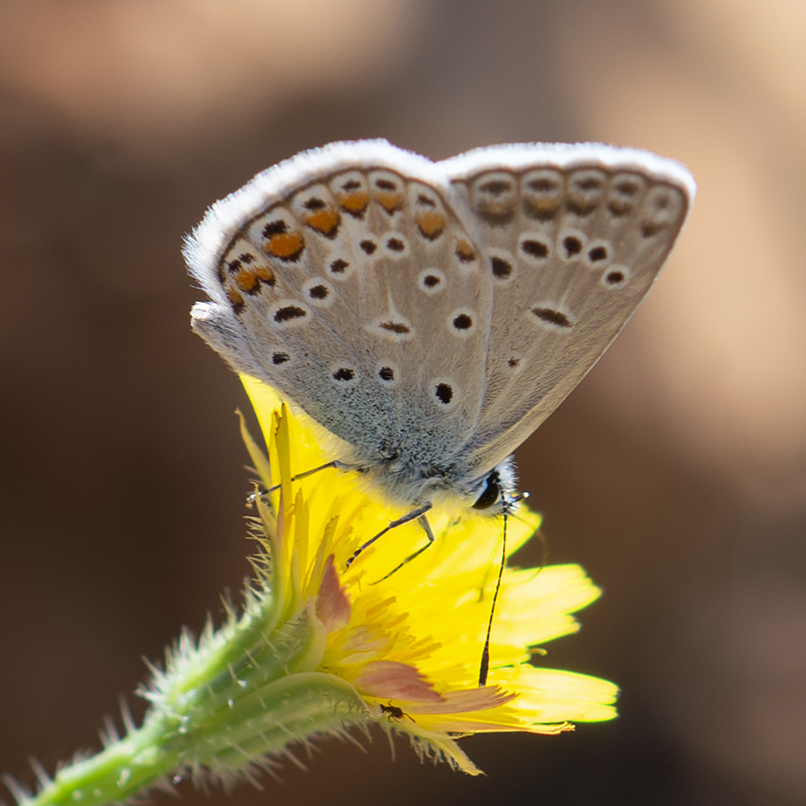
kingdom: Animalia
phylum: Arthropoda
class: Insecta
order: Lepidoptera
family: Lycaenidae
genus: Polyommatus
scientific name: Polyommatus icarus
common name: Common blue
